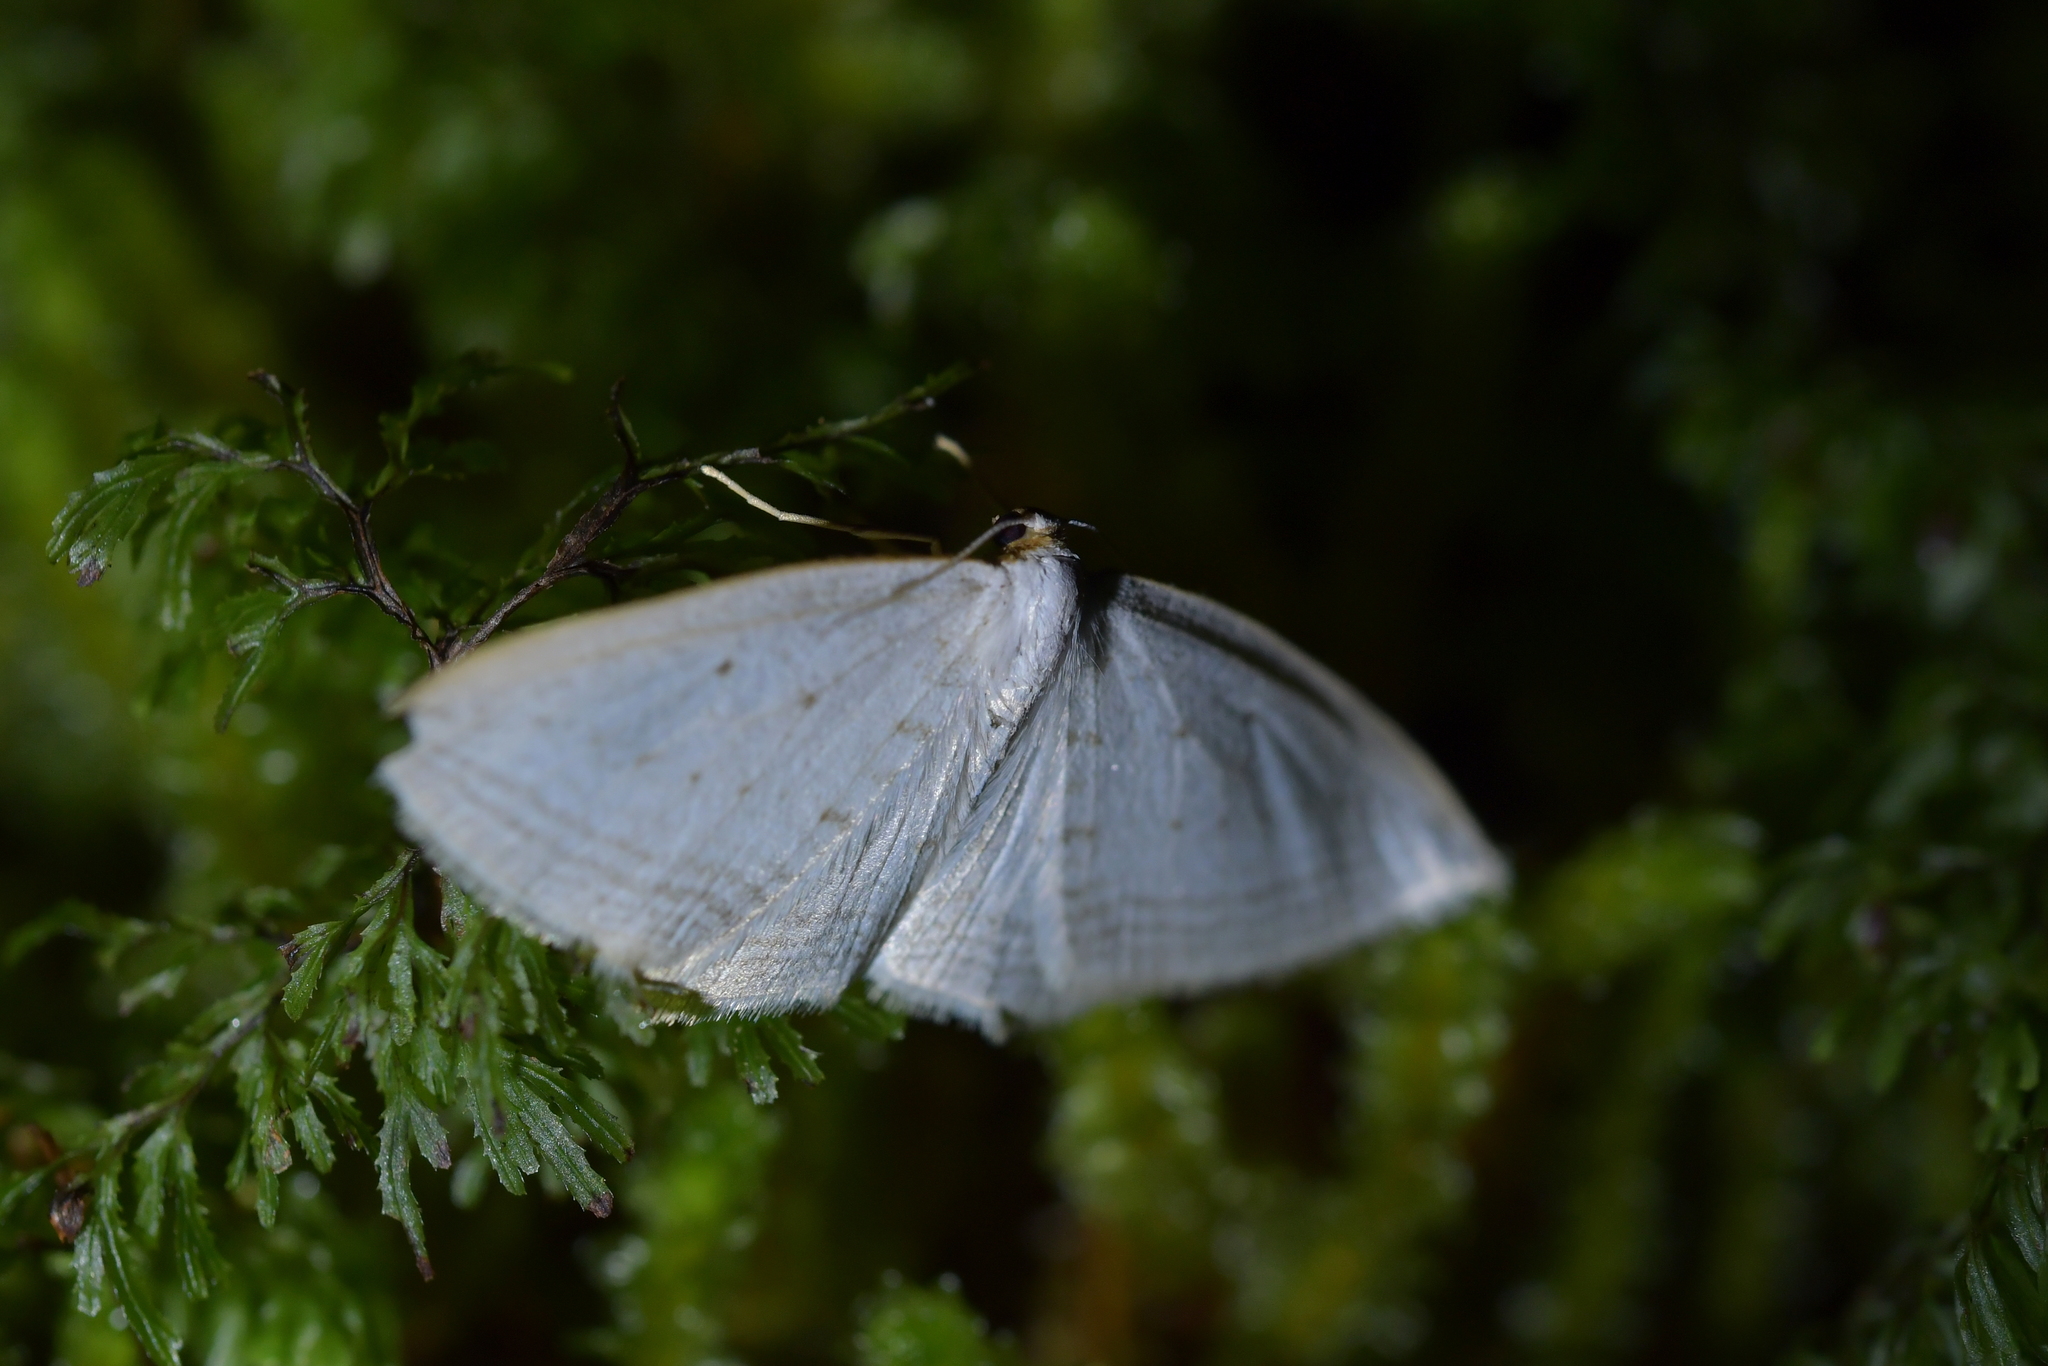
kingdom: Animalia
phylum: Arthropoda
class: Insecta
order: Lepidoptera
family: Geometridae
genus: Orthoclydon
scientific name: Orthoclydon praefectata
